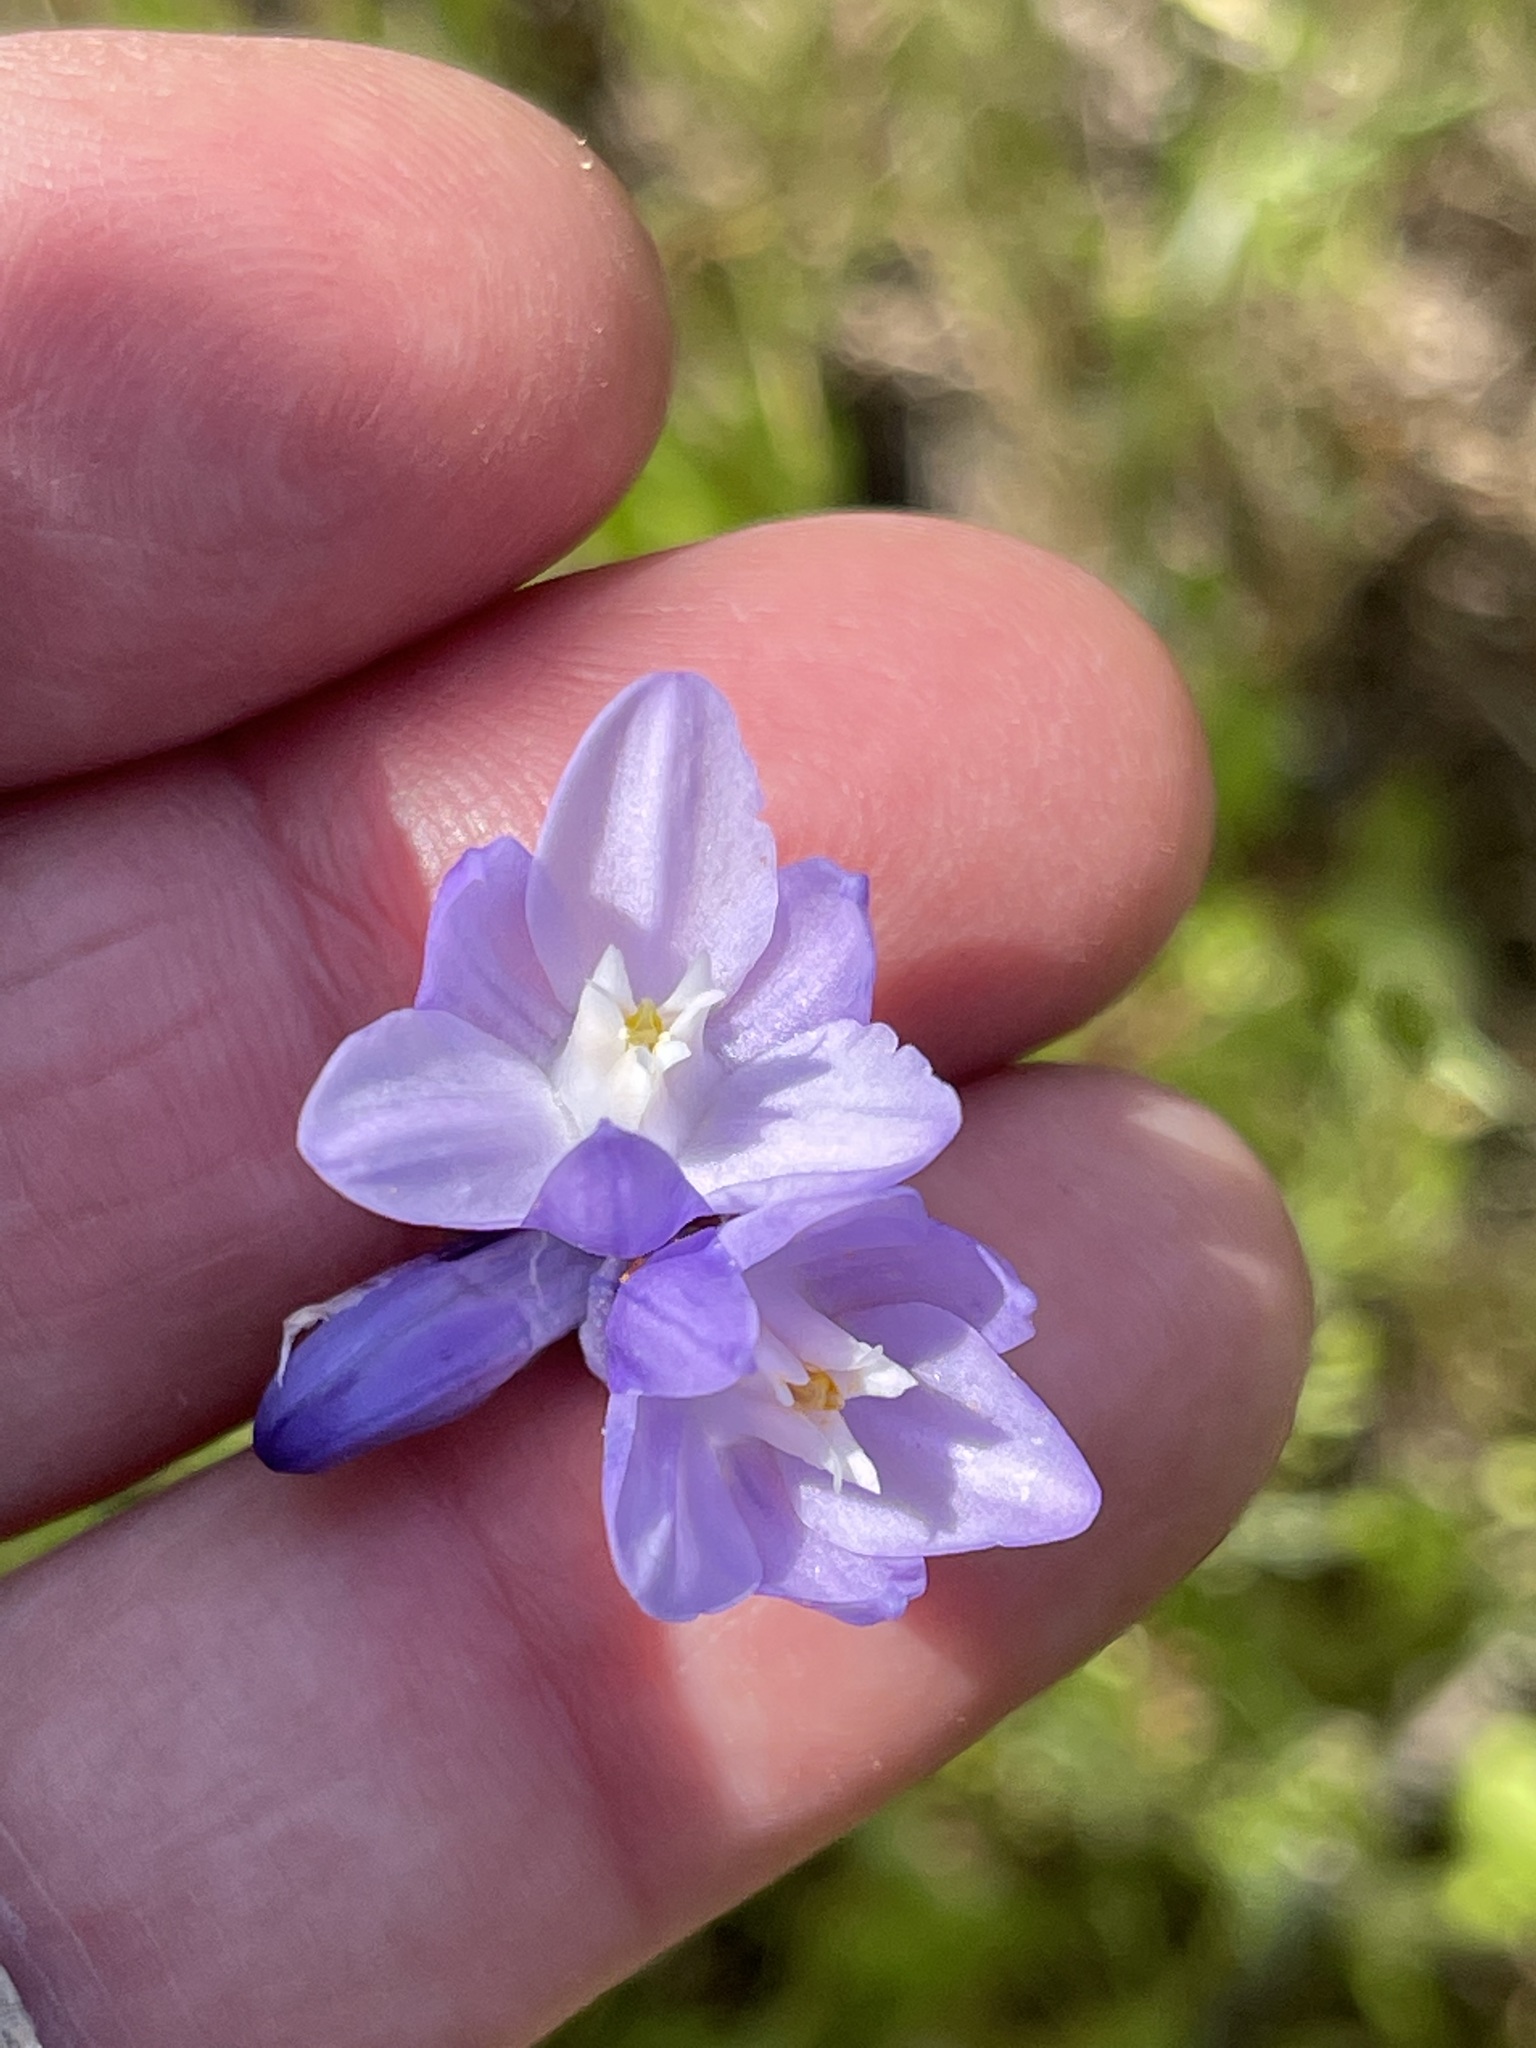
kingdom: Plantae
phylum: Tracheophyta
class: Liliopsida
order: Asparagales
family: Asparagaceae
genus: Dipterostemon
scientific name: Dipterostemon capitatus
